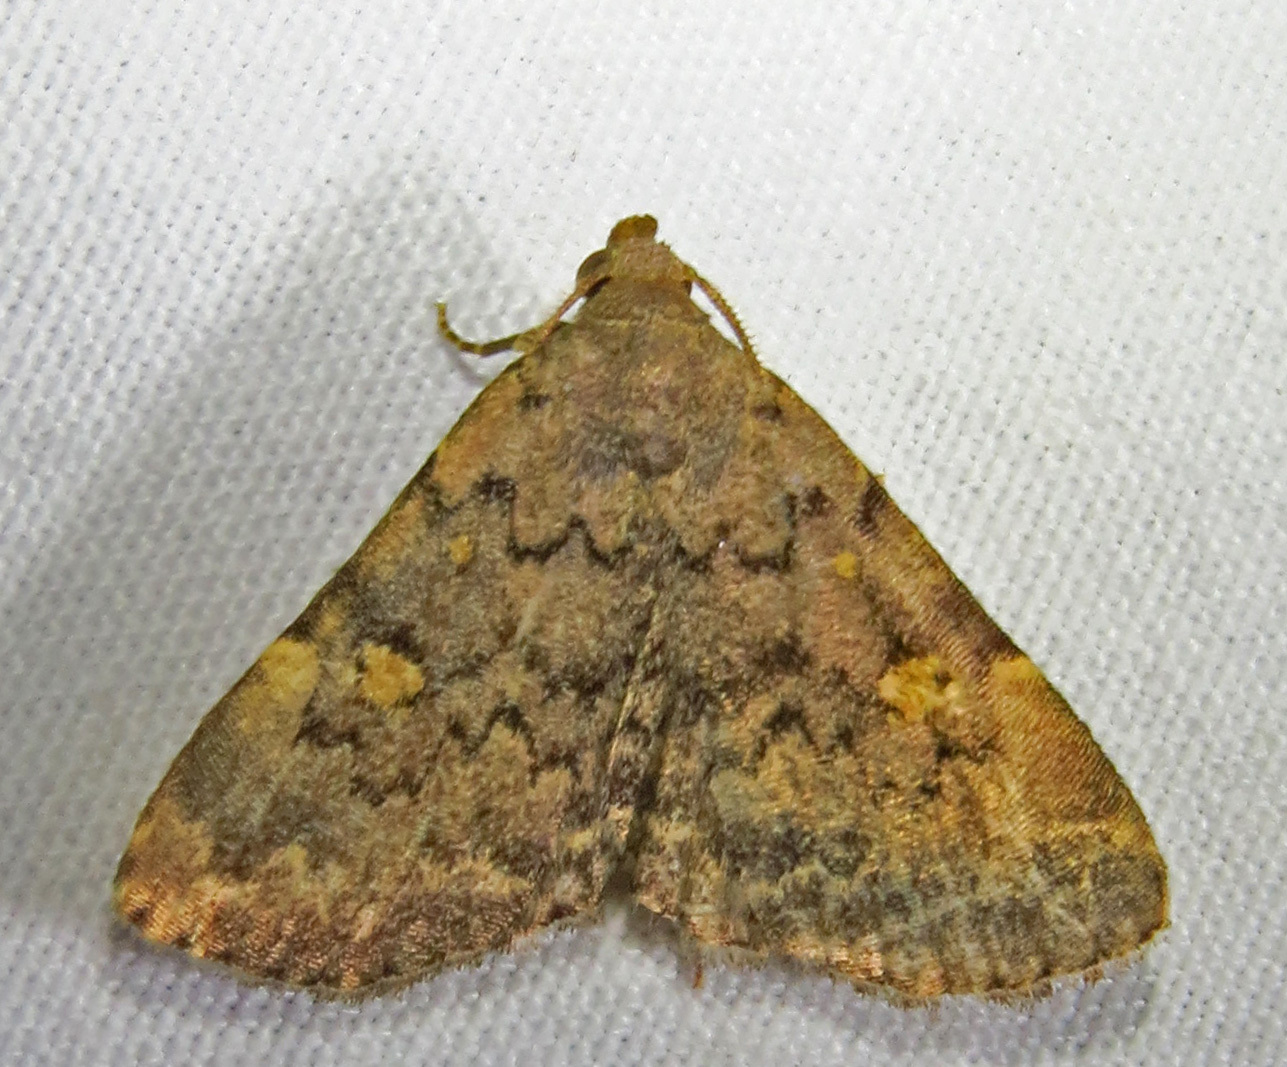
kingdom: Animalia
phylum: Arthropoda
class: Insecta
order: Lepidoptera
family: Erebidae
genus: Idia
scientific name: Idia aemula
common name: Common idia moth
